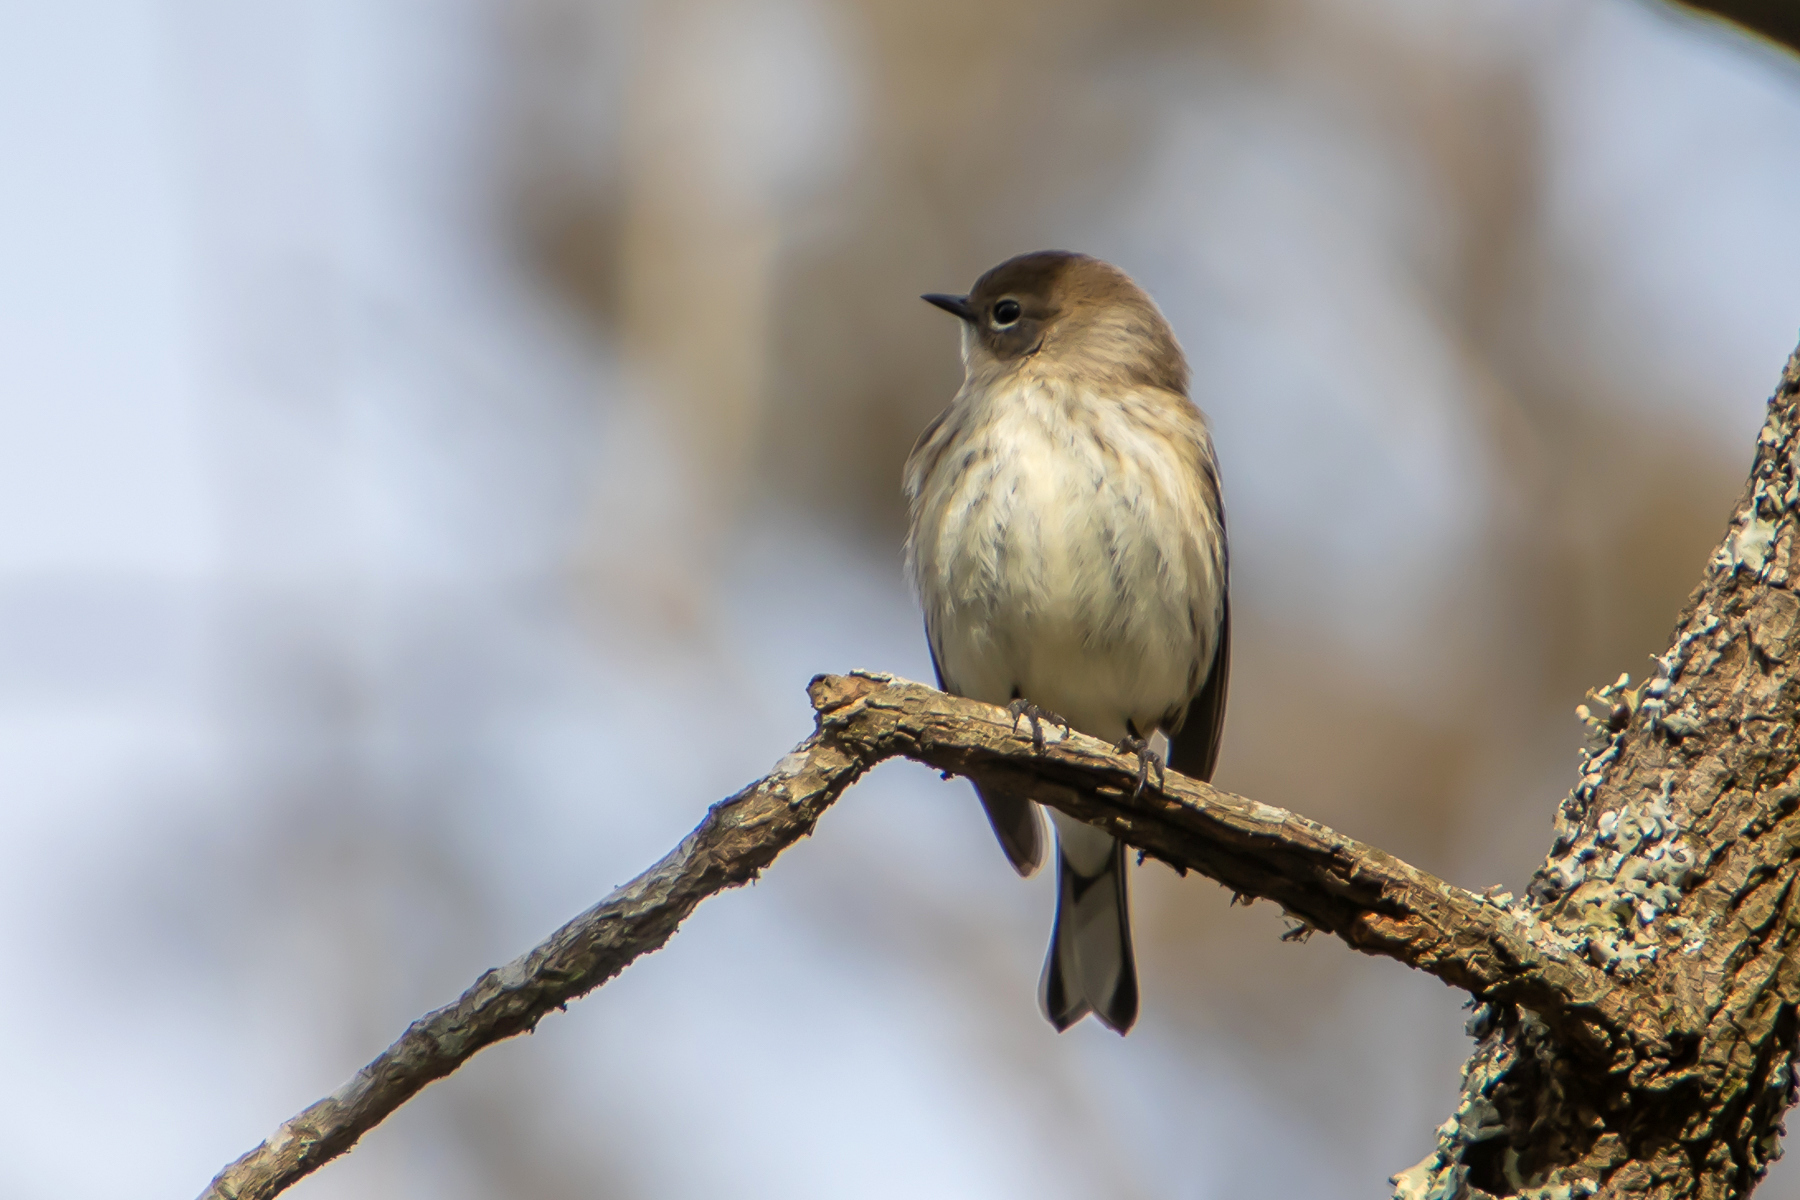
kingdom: Animalia
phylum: Chordata
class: Aves
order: Passeriformes
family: Parulidae
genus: Setophaga
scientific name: Setophaga coronata
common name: Myrtle warbler
